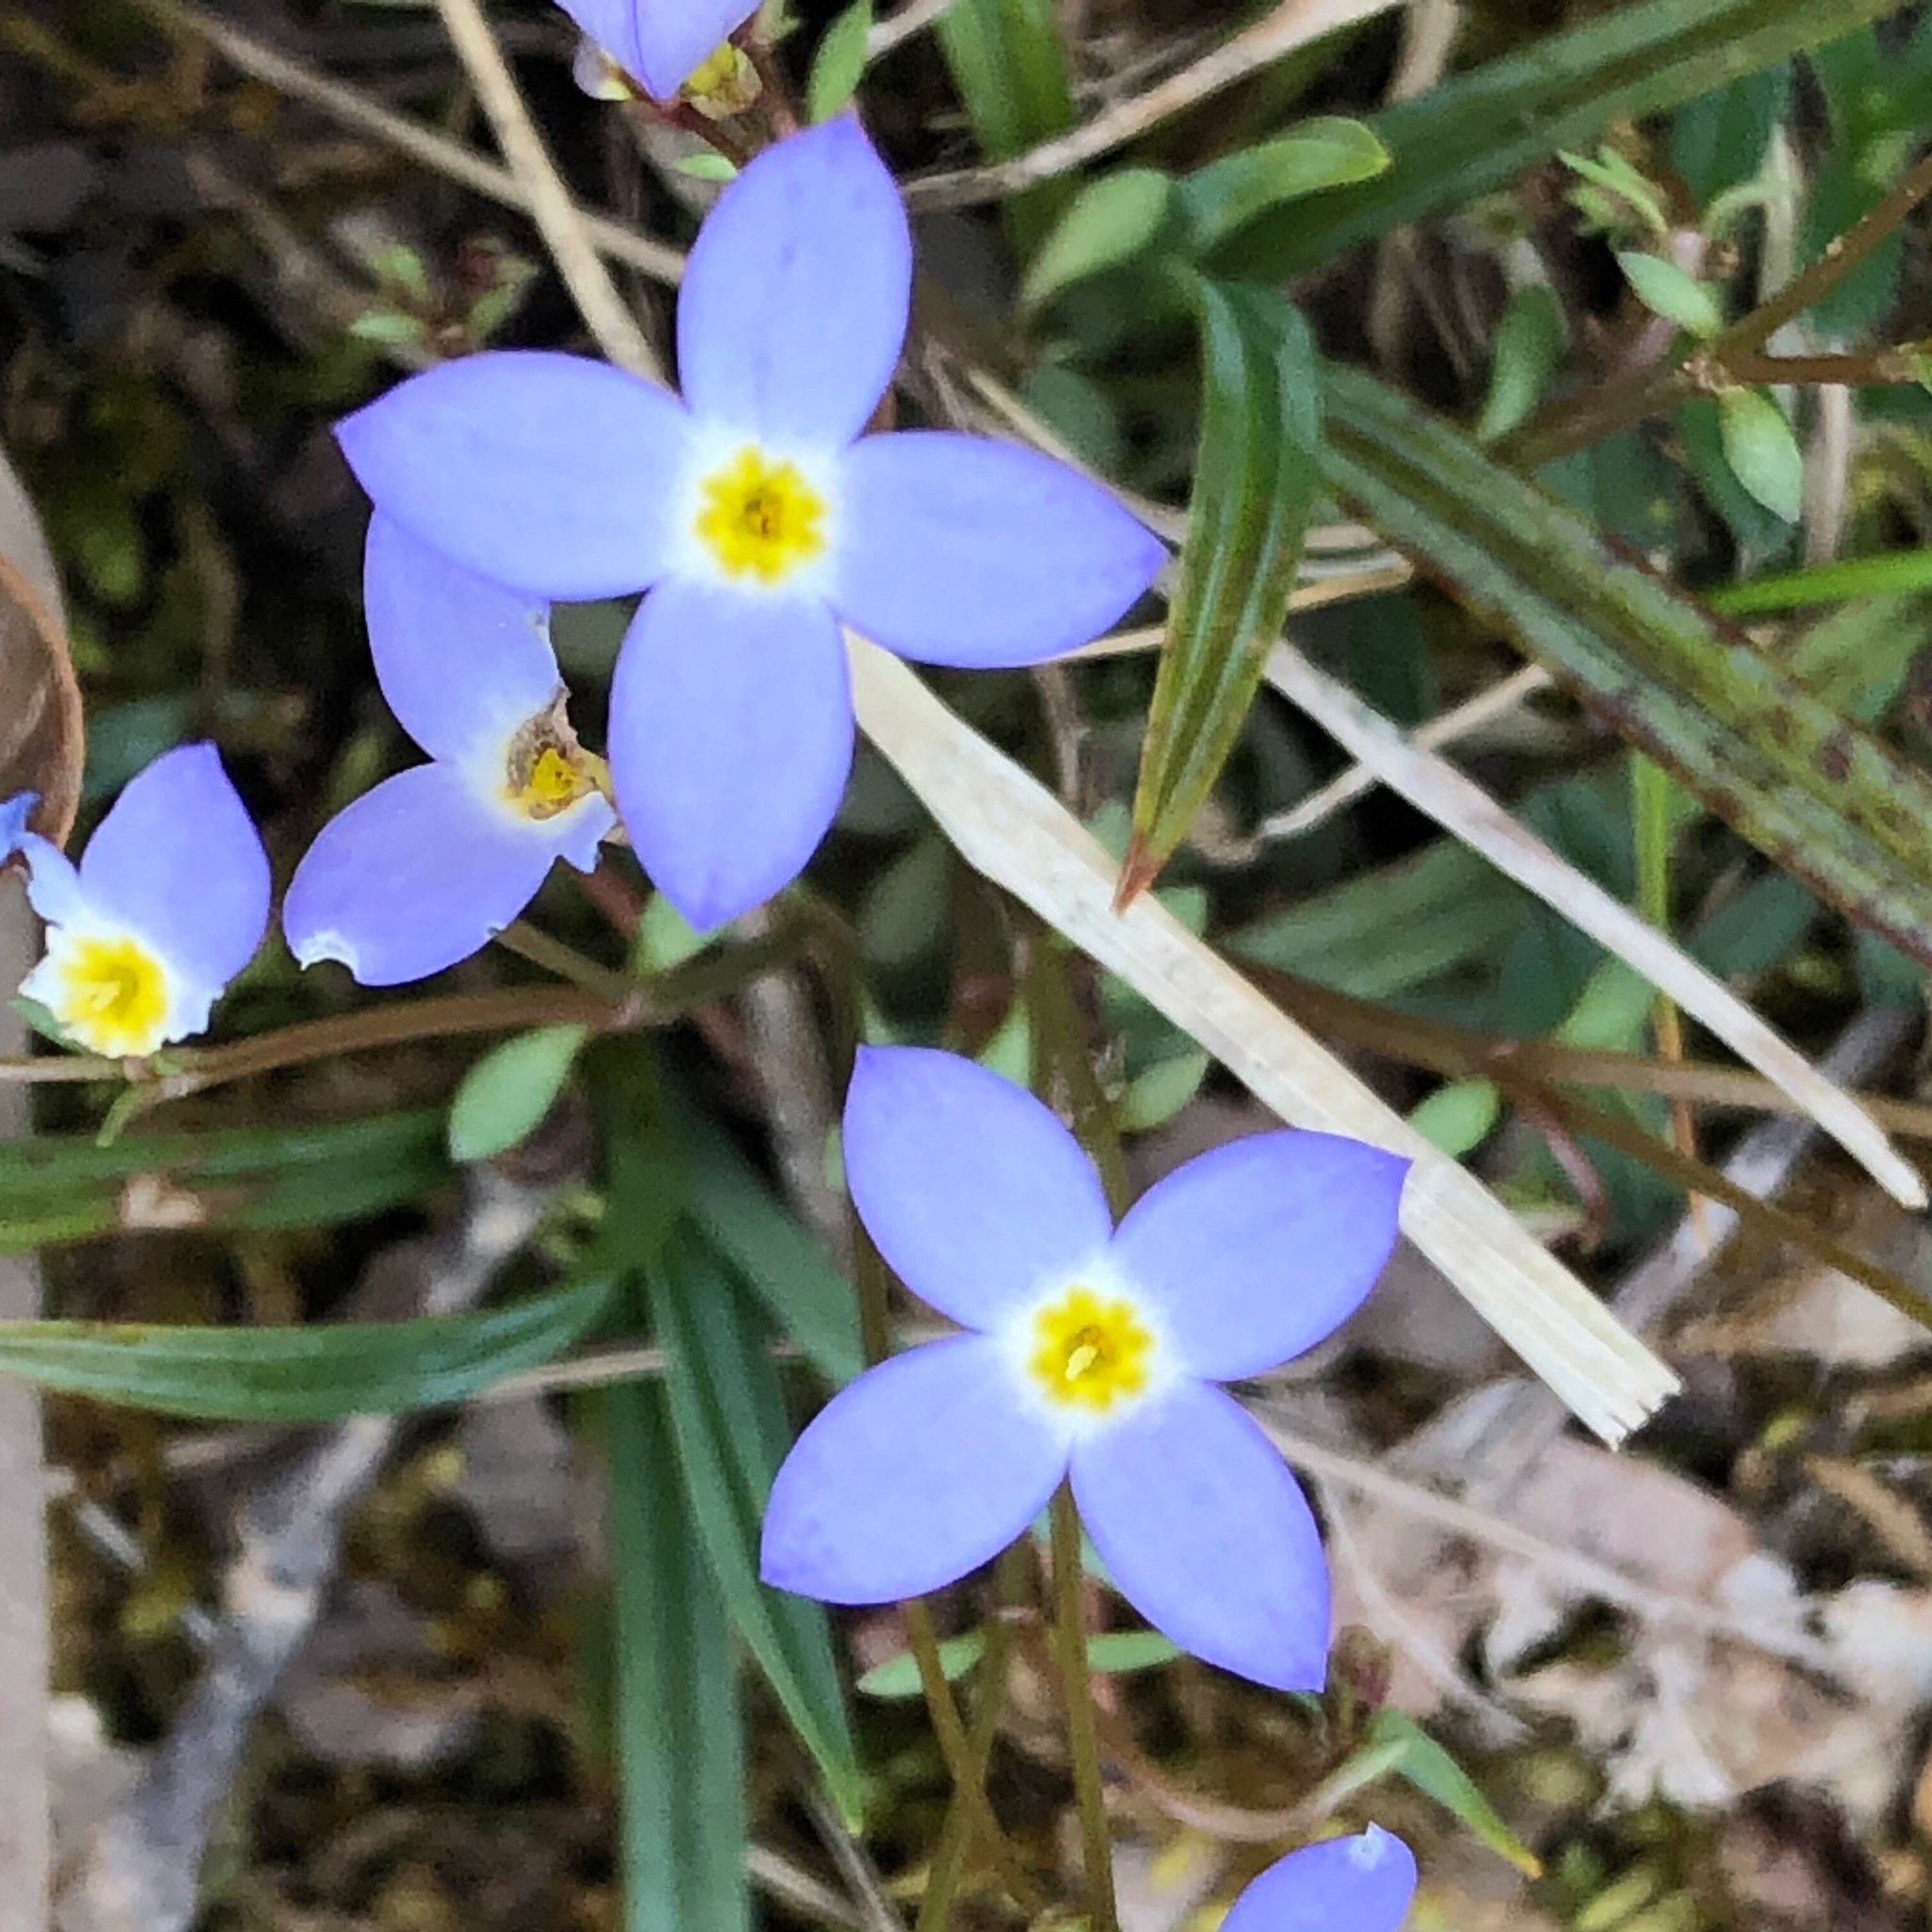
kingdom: Plantae
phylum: Tracheophyta
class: Magnoliopsida
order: Gentianales
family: Rubiaceae
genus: Houstonia
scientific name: Houstonia caerulea
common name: Bluets
